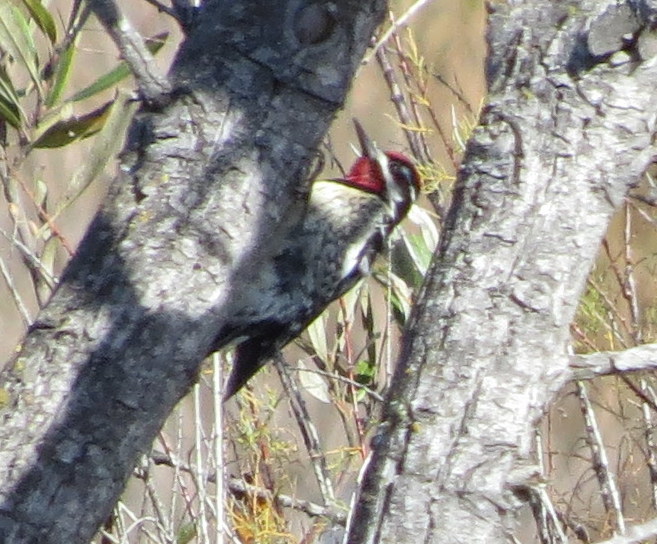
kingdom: Animalia
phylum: Chordata
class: Aves
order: Piciformes
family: Picidae
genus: Sphyrapicus
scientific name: Sphyrapicus nuchalis
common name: Red-naped sapsucker
